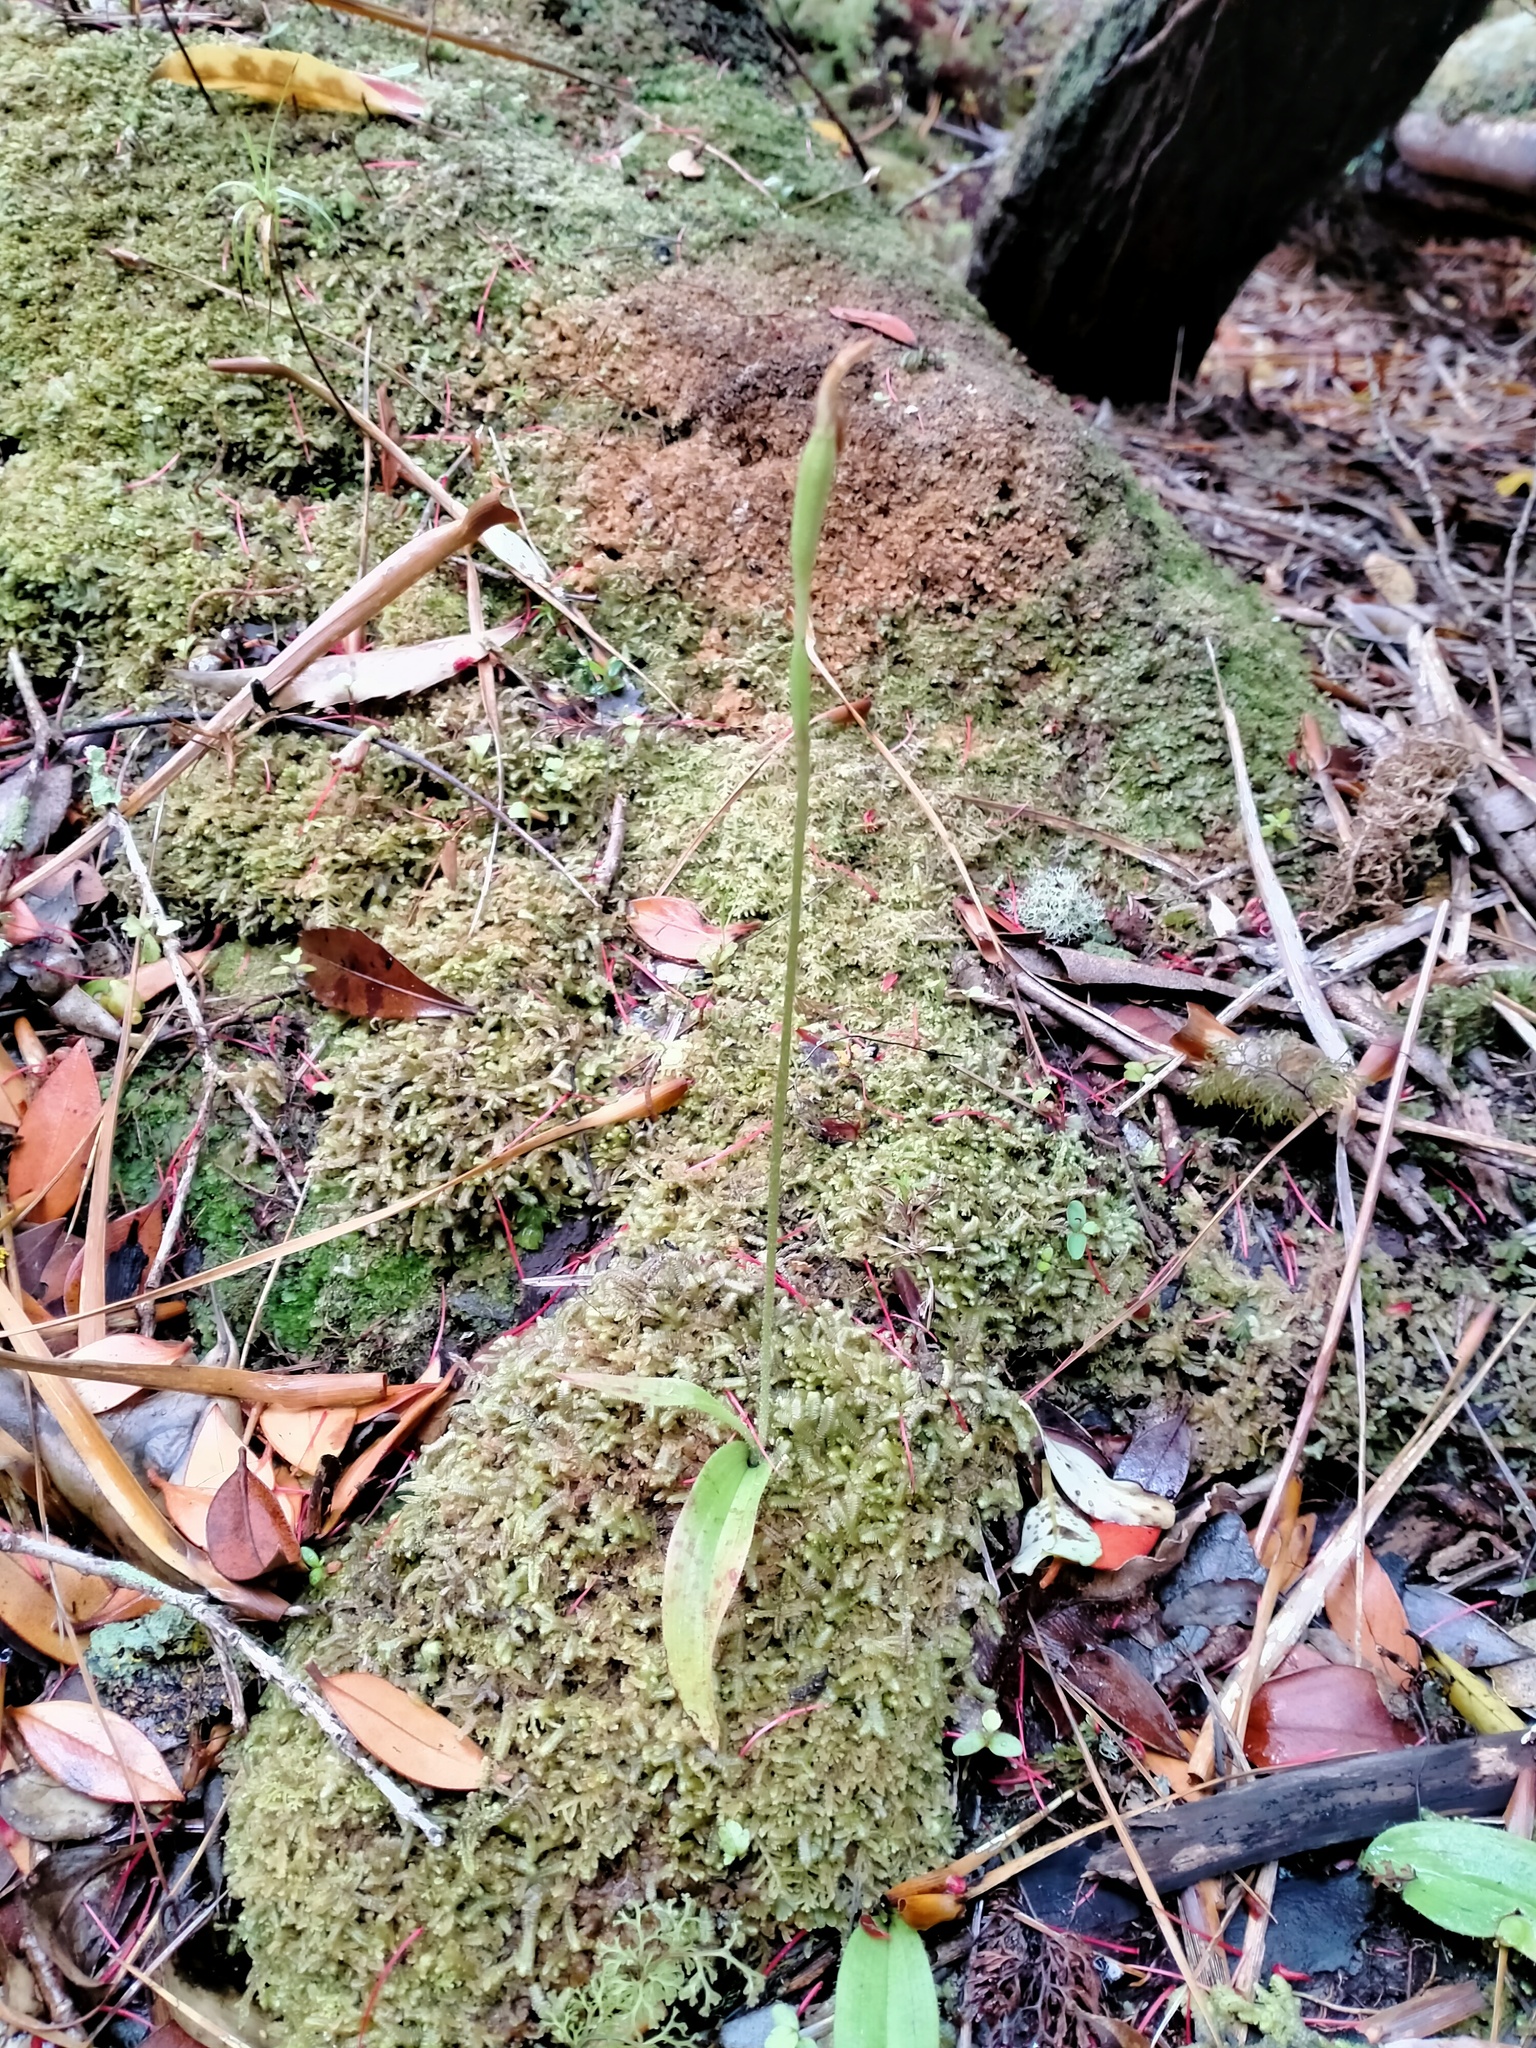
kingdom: Plantae
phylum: Tracheophyta
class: Liliopsida
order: Asparagales
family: Orchidaceae
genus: Aporostylis
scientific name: Aporostylis bifolia
